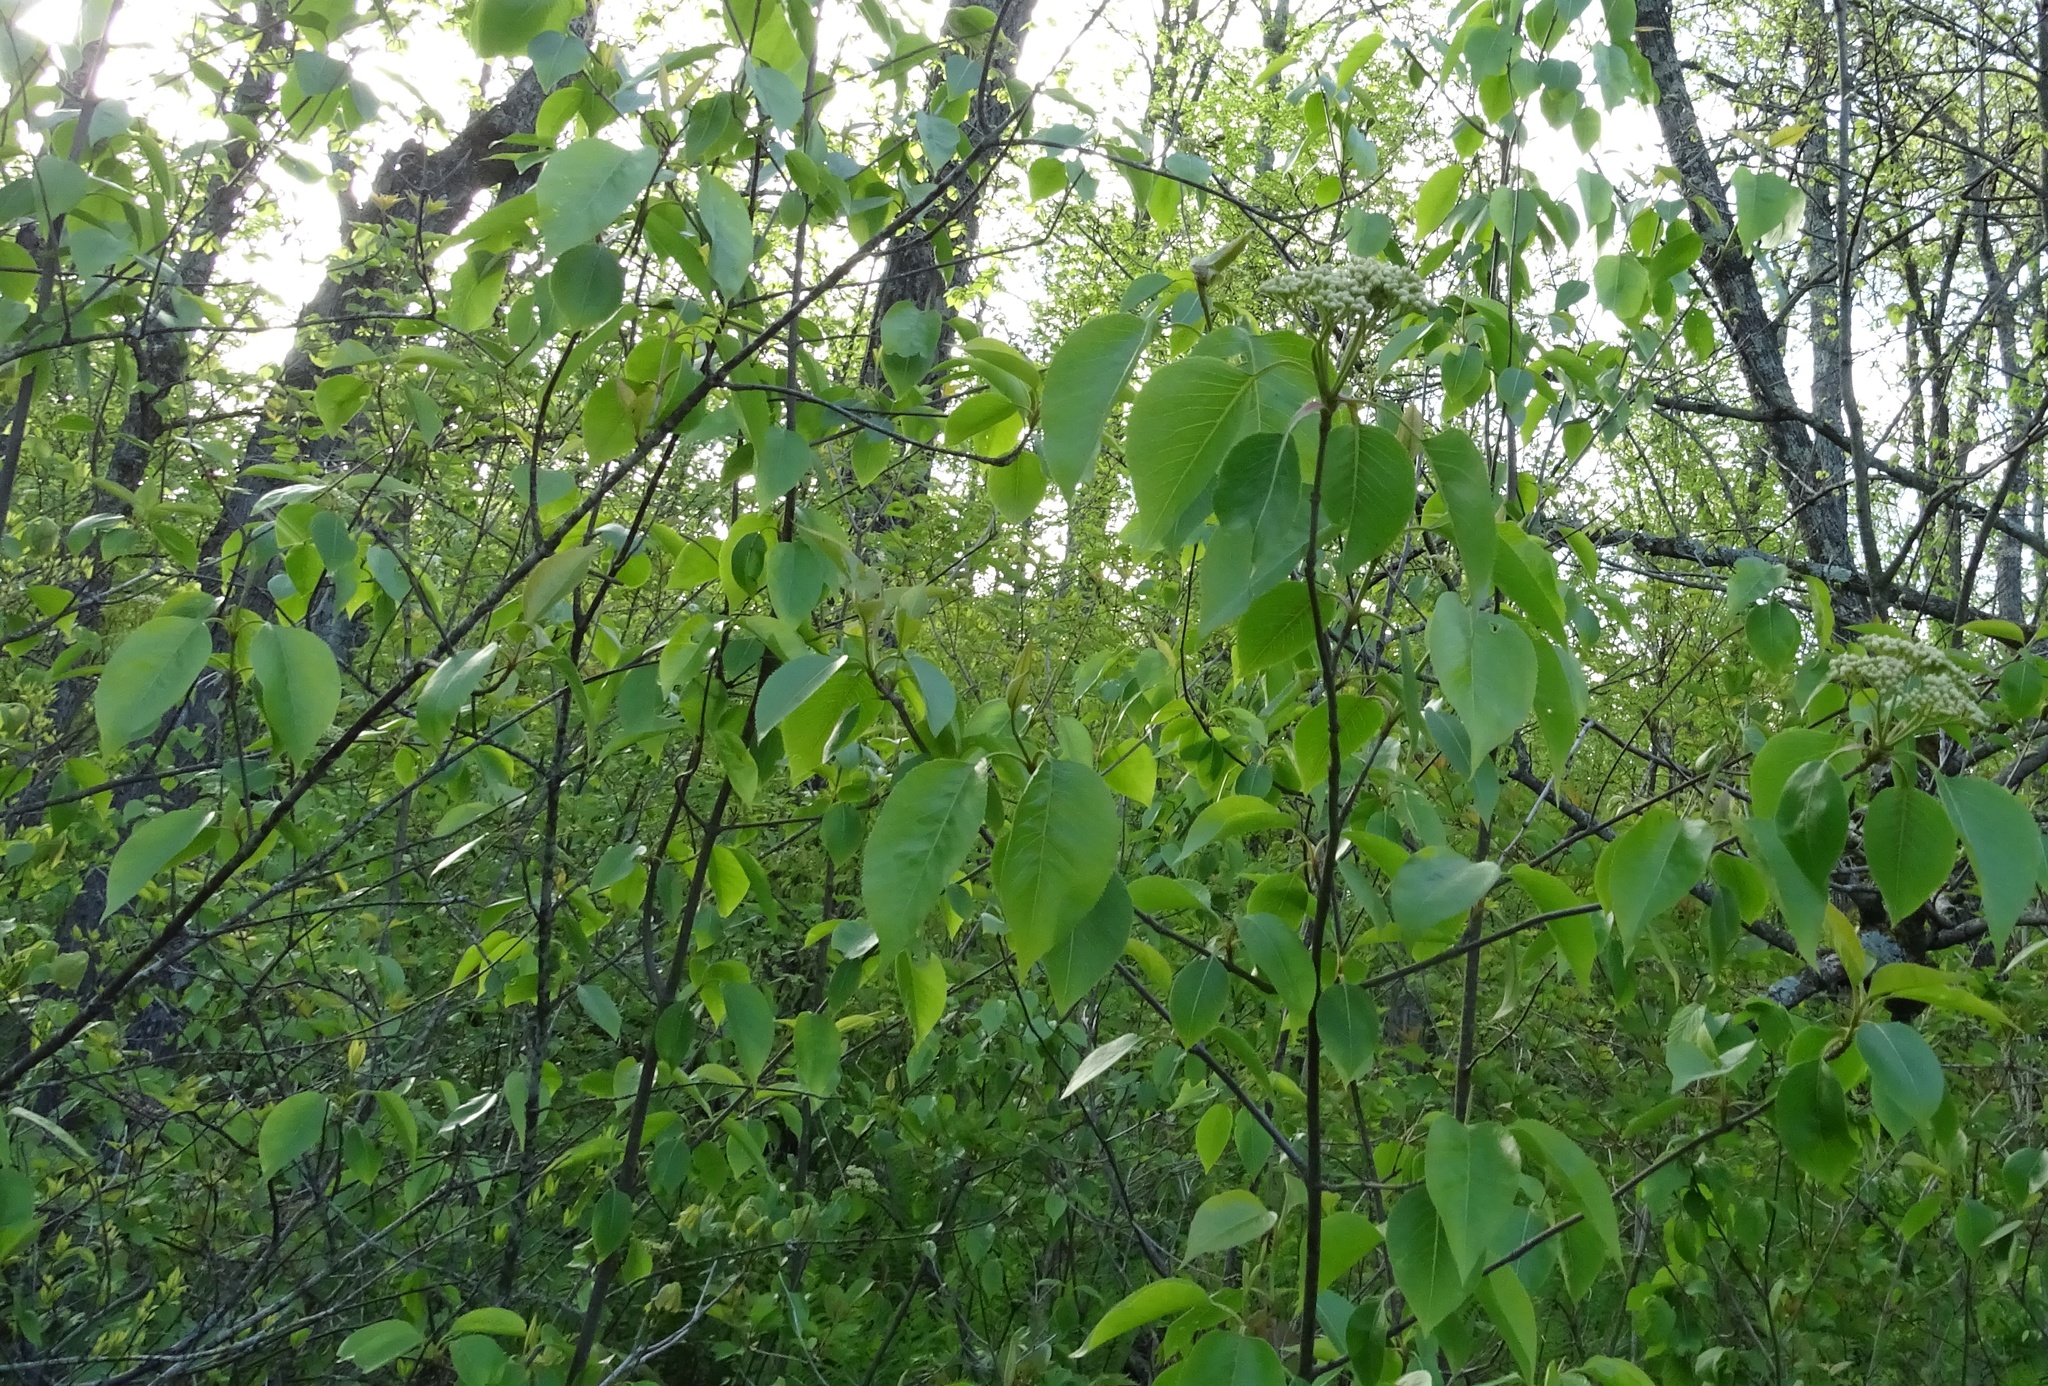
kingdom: Plantae
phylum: Tracheophyta
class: Magnoliopsida
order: Dipsacales
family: Viburnaceae
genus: Viburnum
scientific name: Viburnum lentago
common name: Black haw
